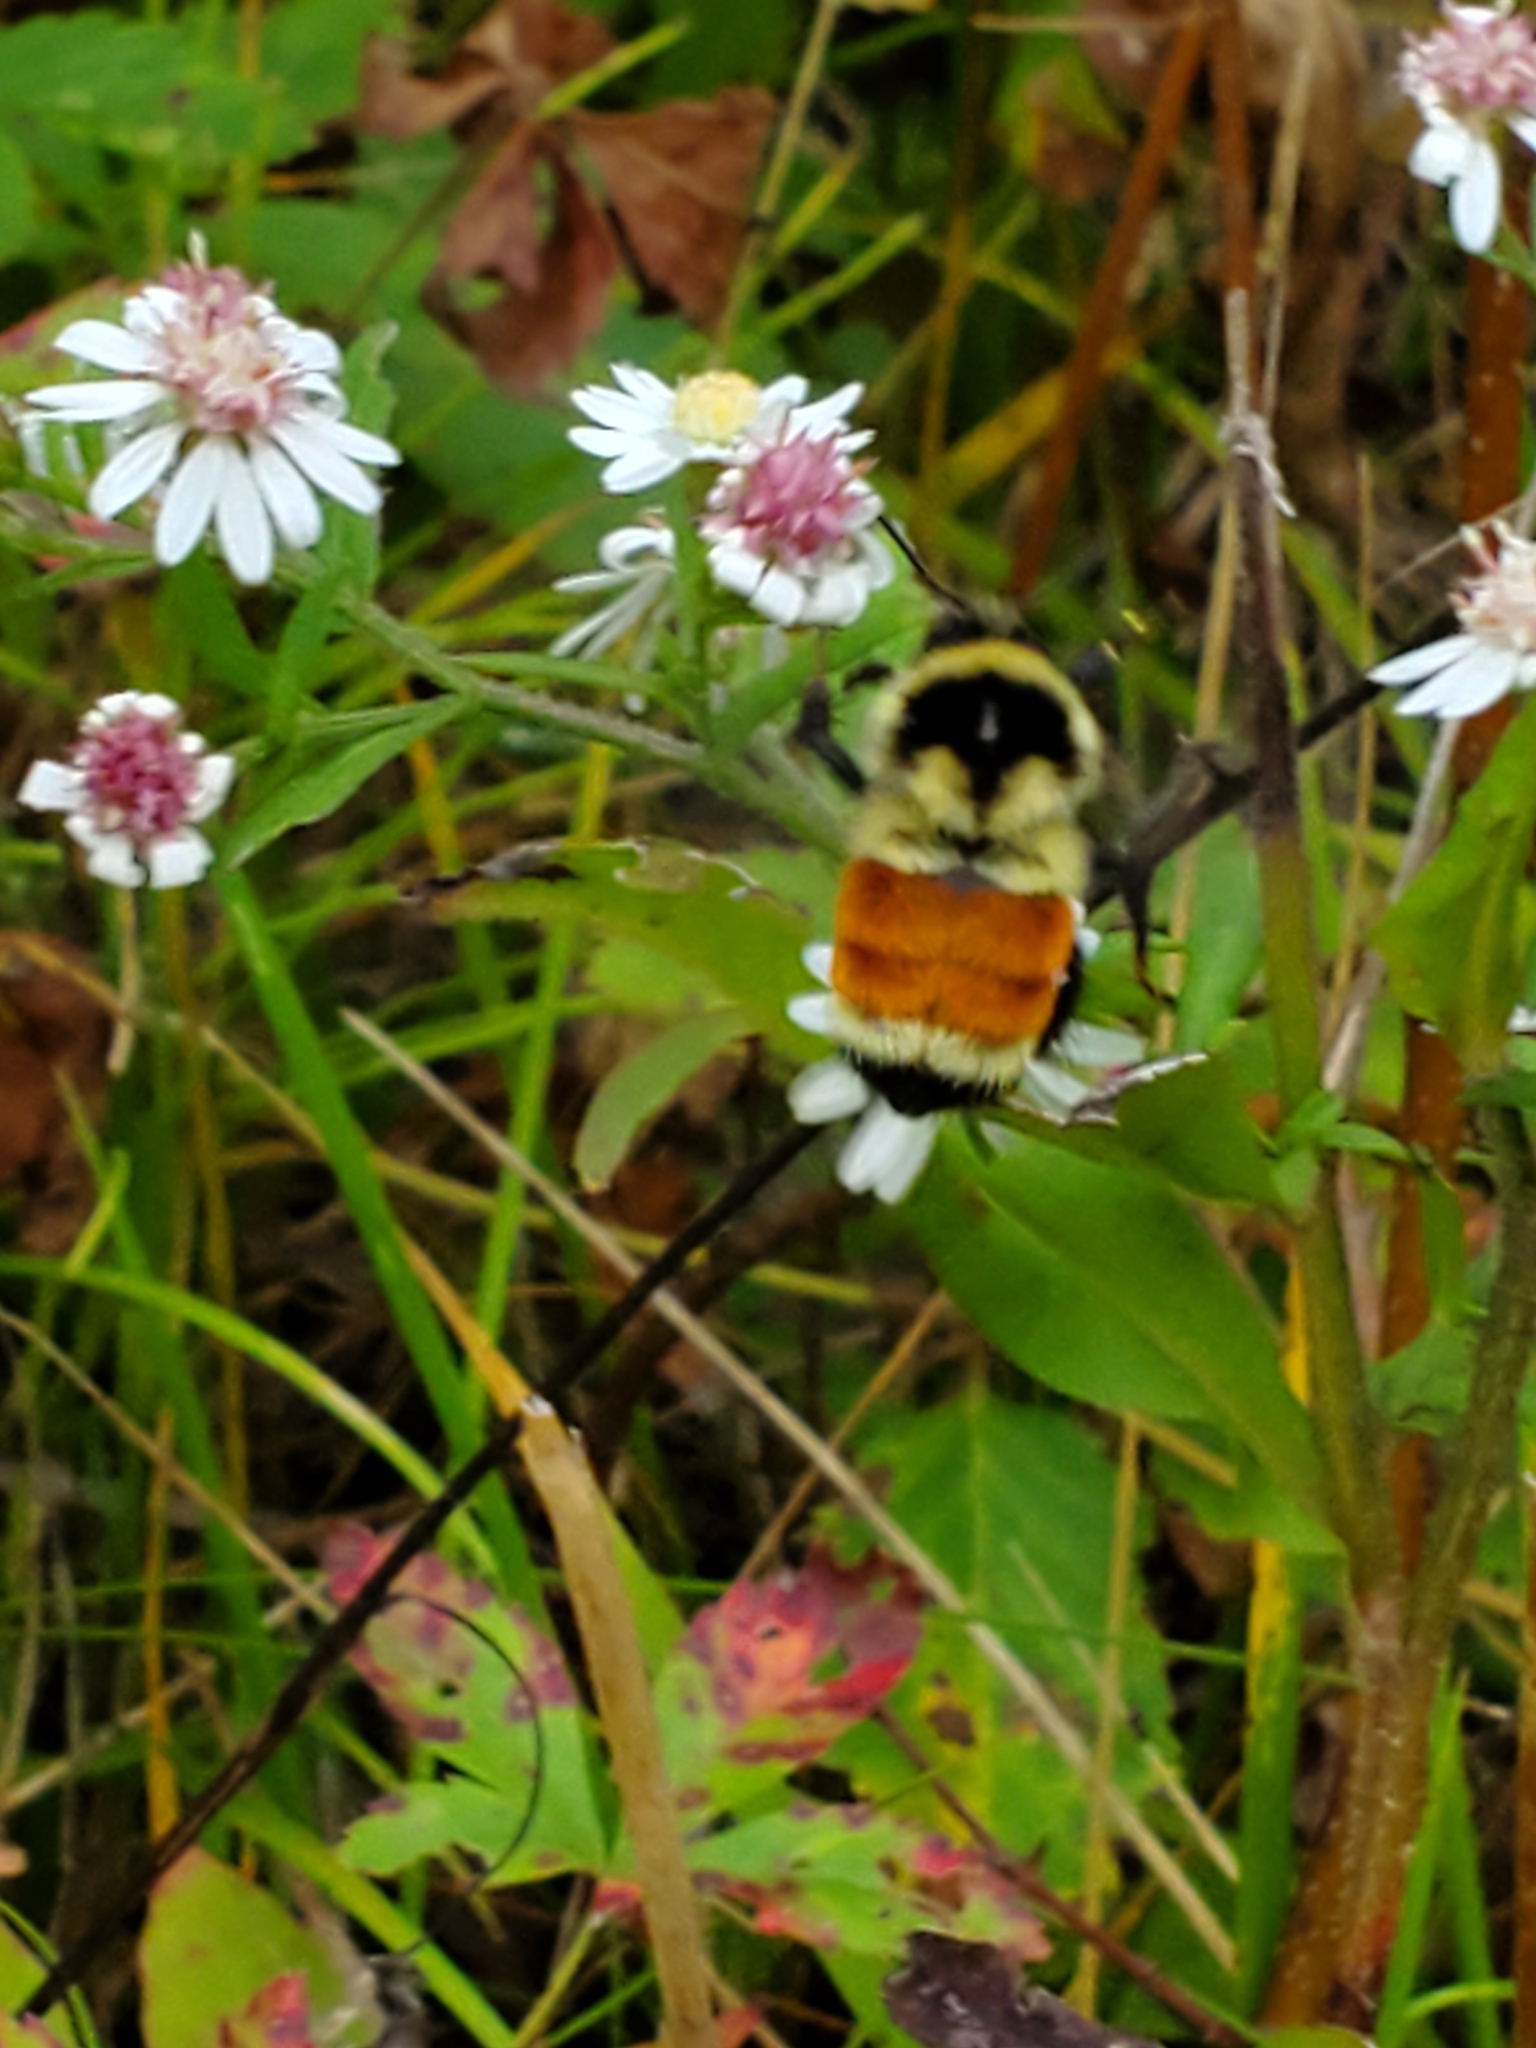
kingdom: Animalia
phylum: Arthropoda
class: Insecta
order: Hymenoptera
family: Apidae
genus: Bombus
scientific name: Bombus ternarius
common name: Tri-colored bumble bee
